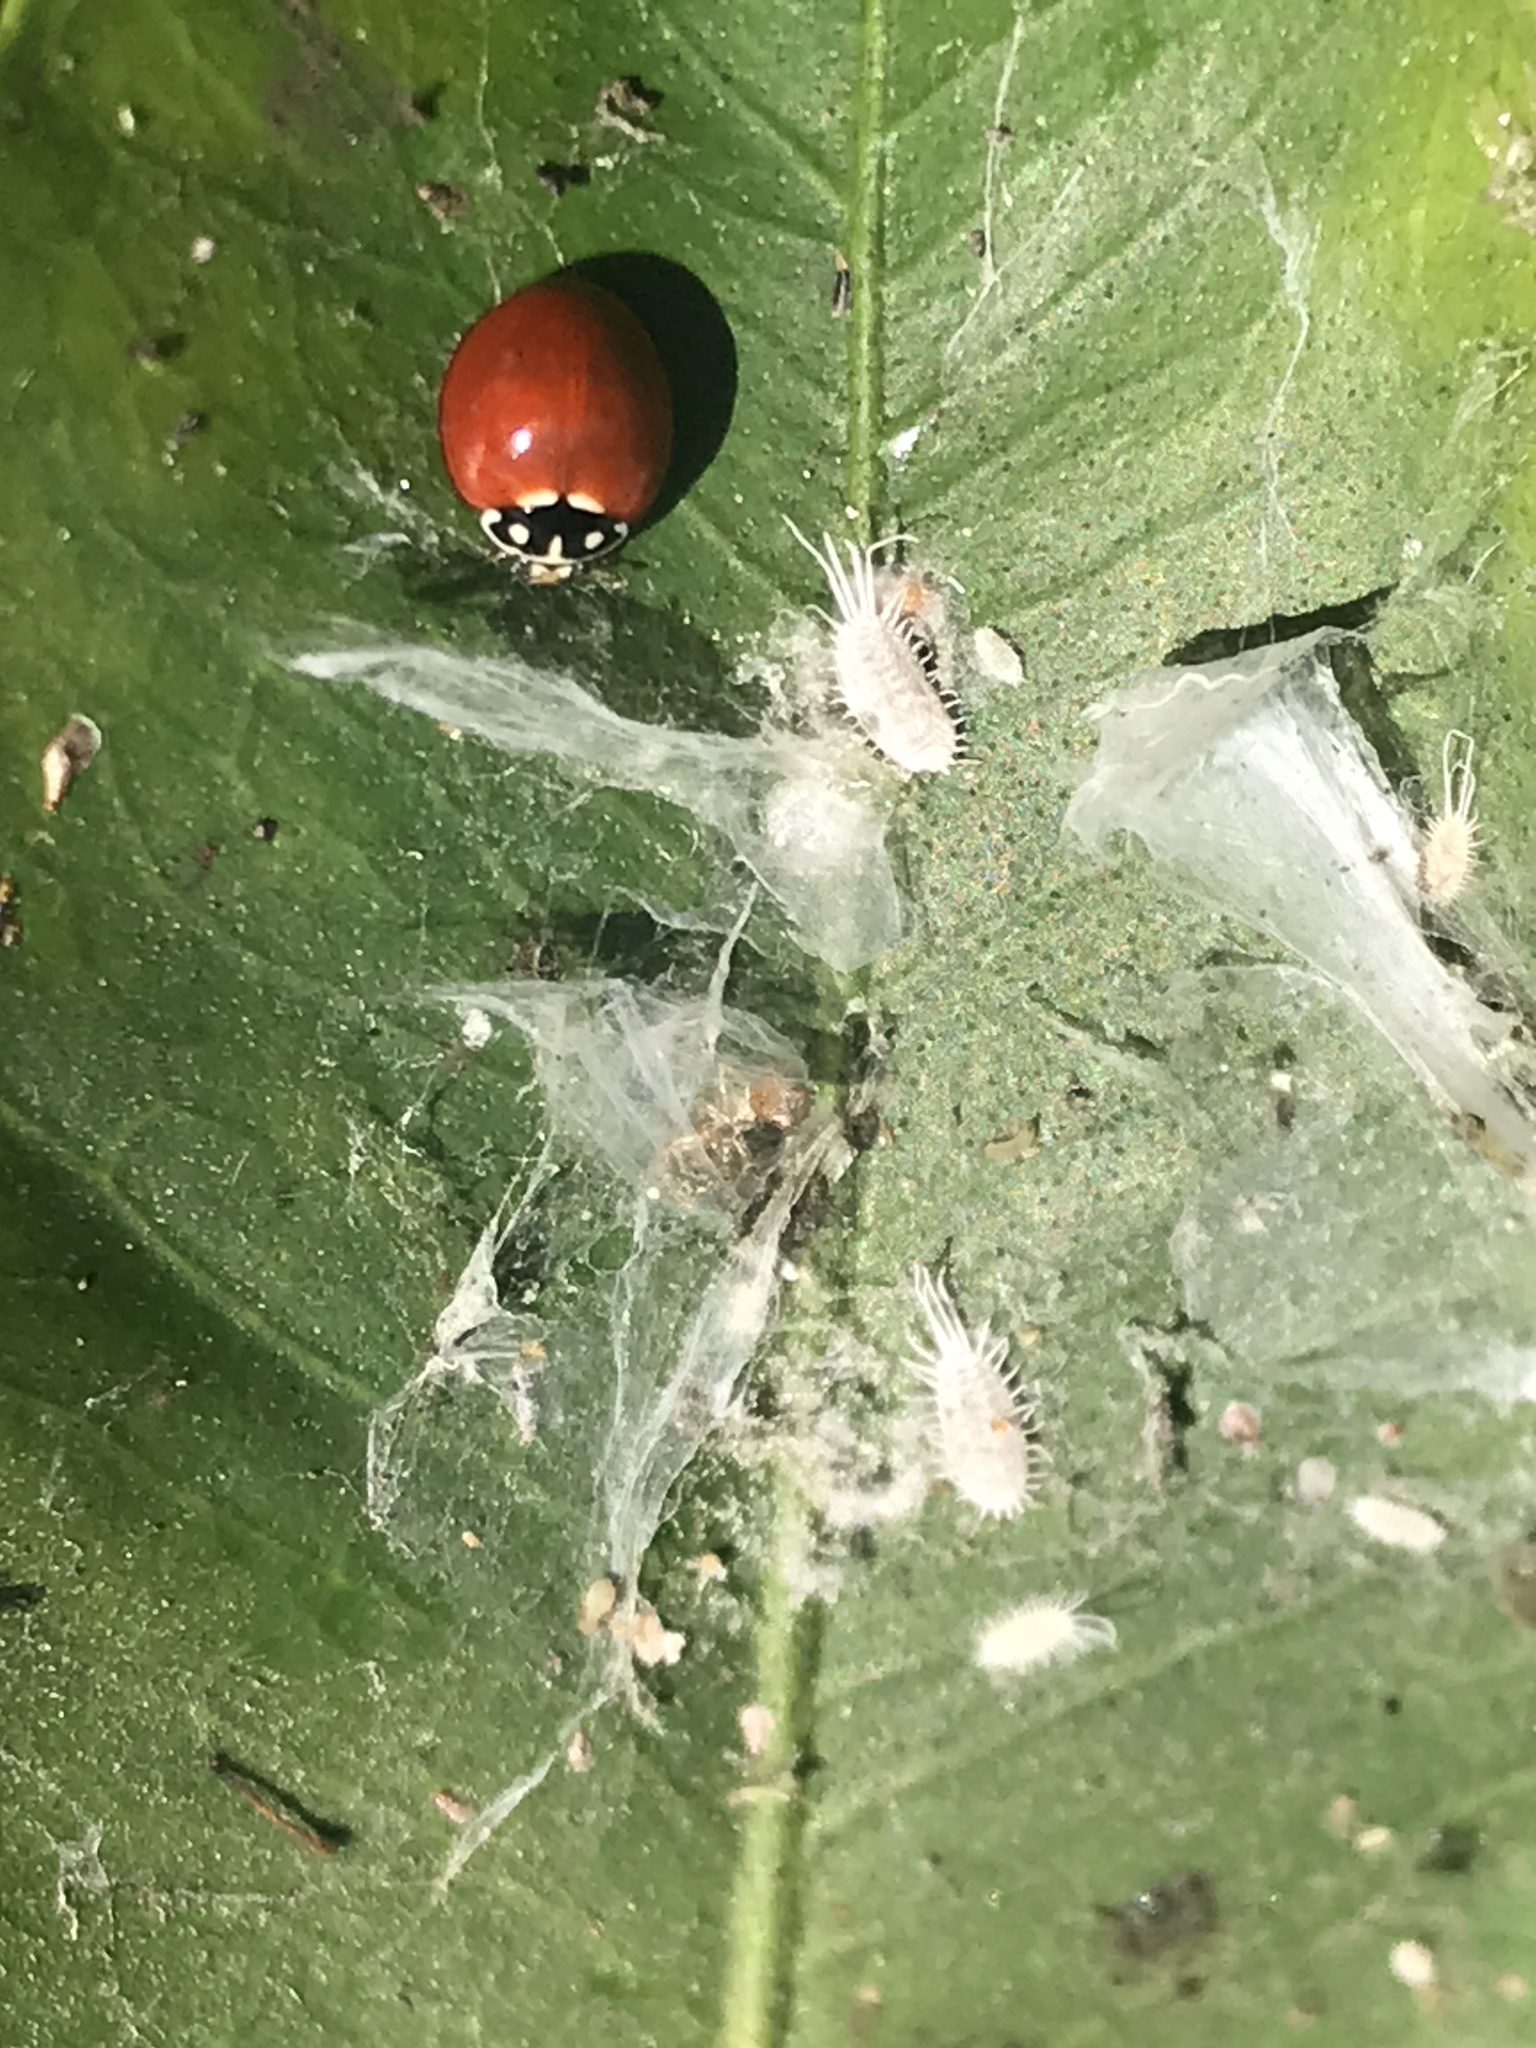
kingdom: Animalia
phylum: Arthropoda
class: Insecta
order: Coleoptera
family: Coccinellidae
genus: Cycloneda
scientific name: Cycloneda sanguinea
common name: Ladybird beetle
